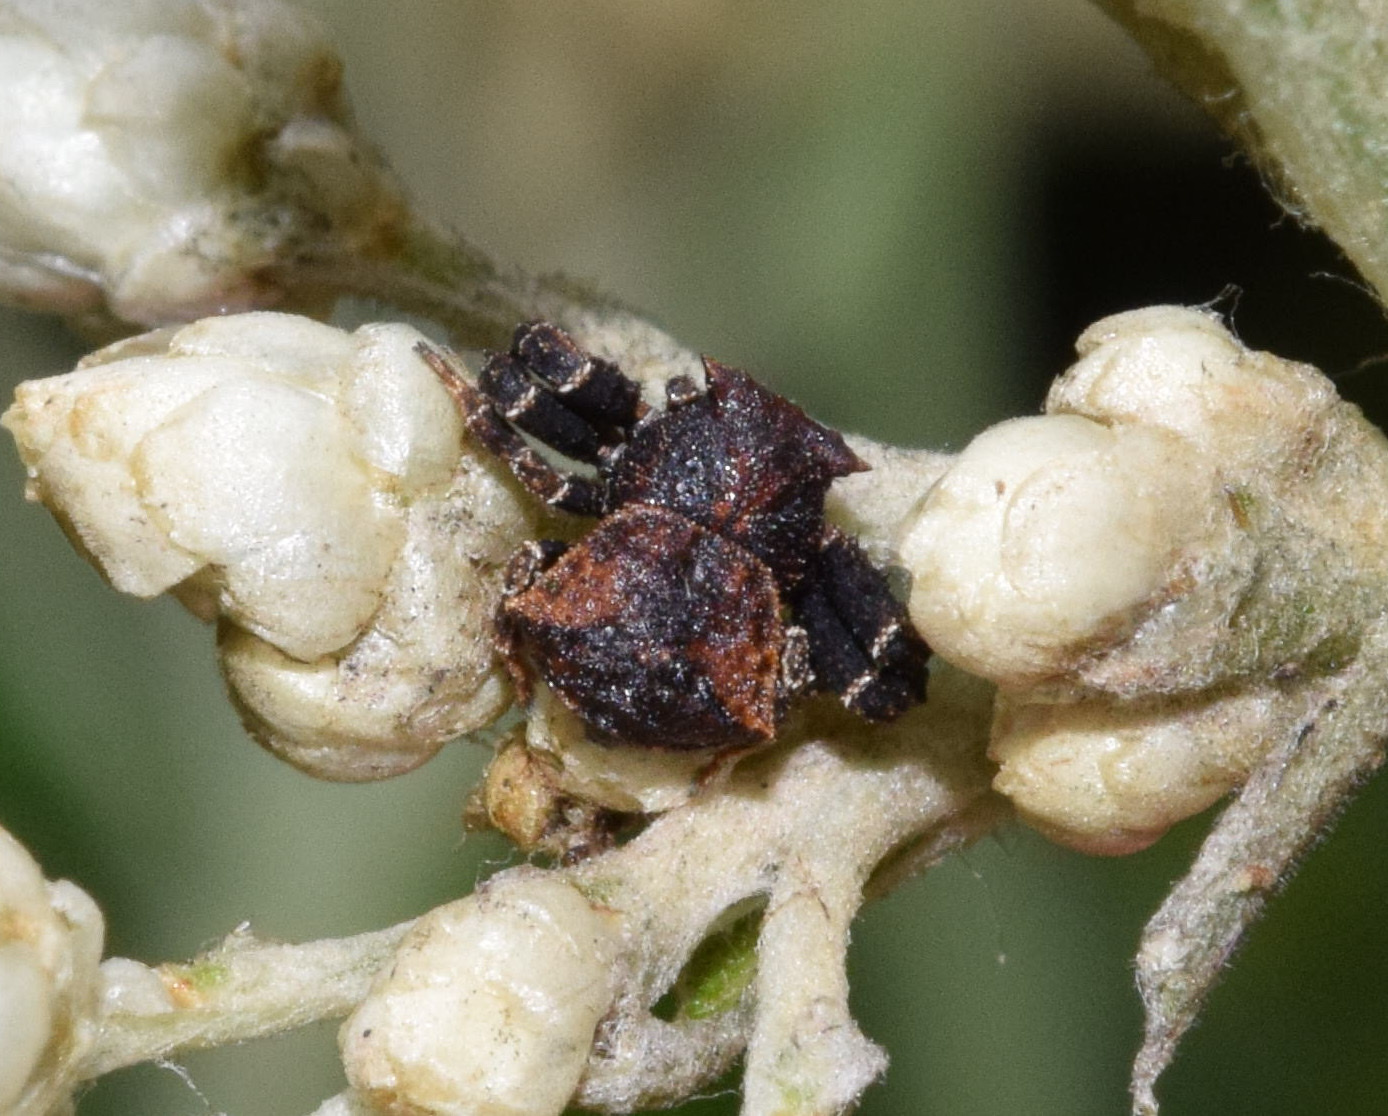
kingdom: Animalia
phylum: Arthropoda
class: Arachnida
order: Araneae
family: Thomisidae
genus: Thomisus
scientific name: Thomisus scrupeus
